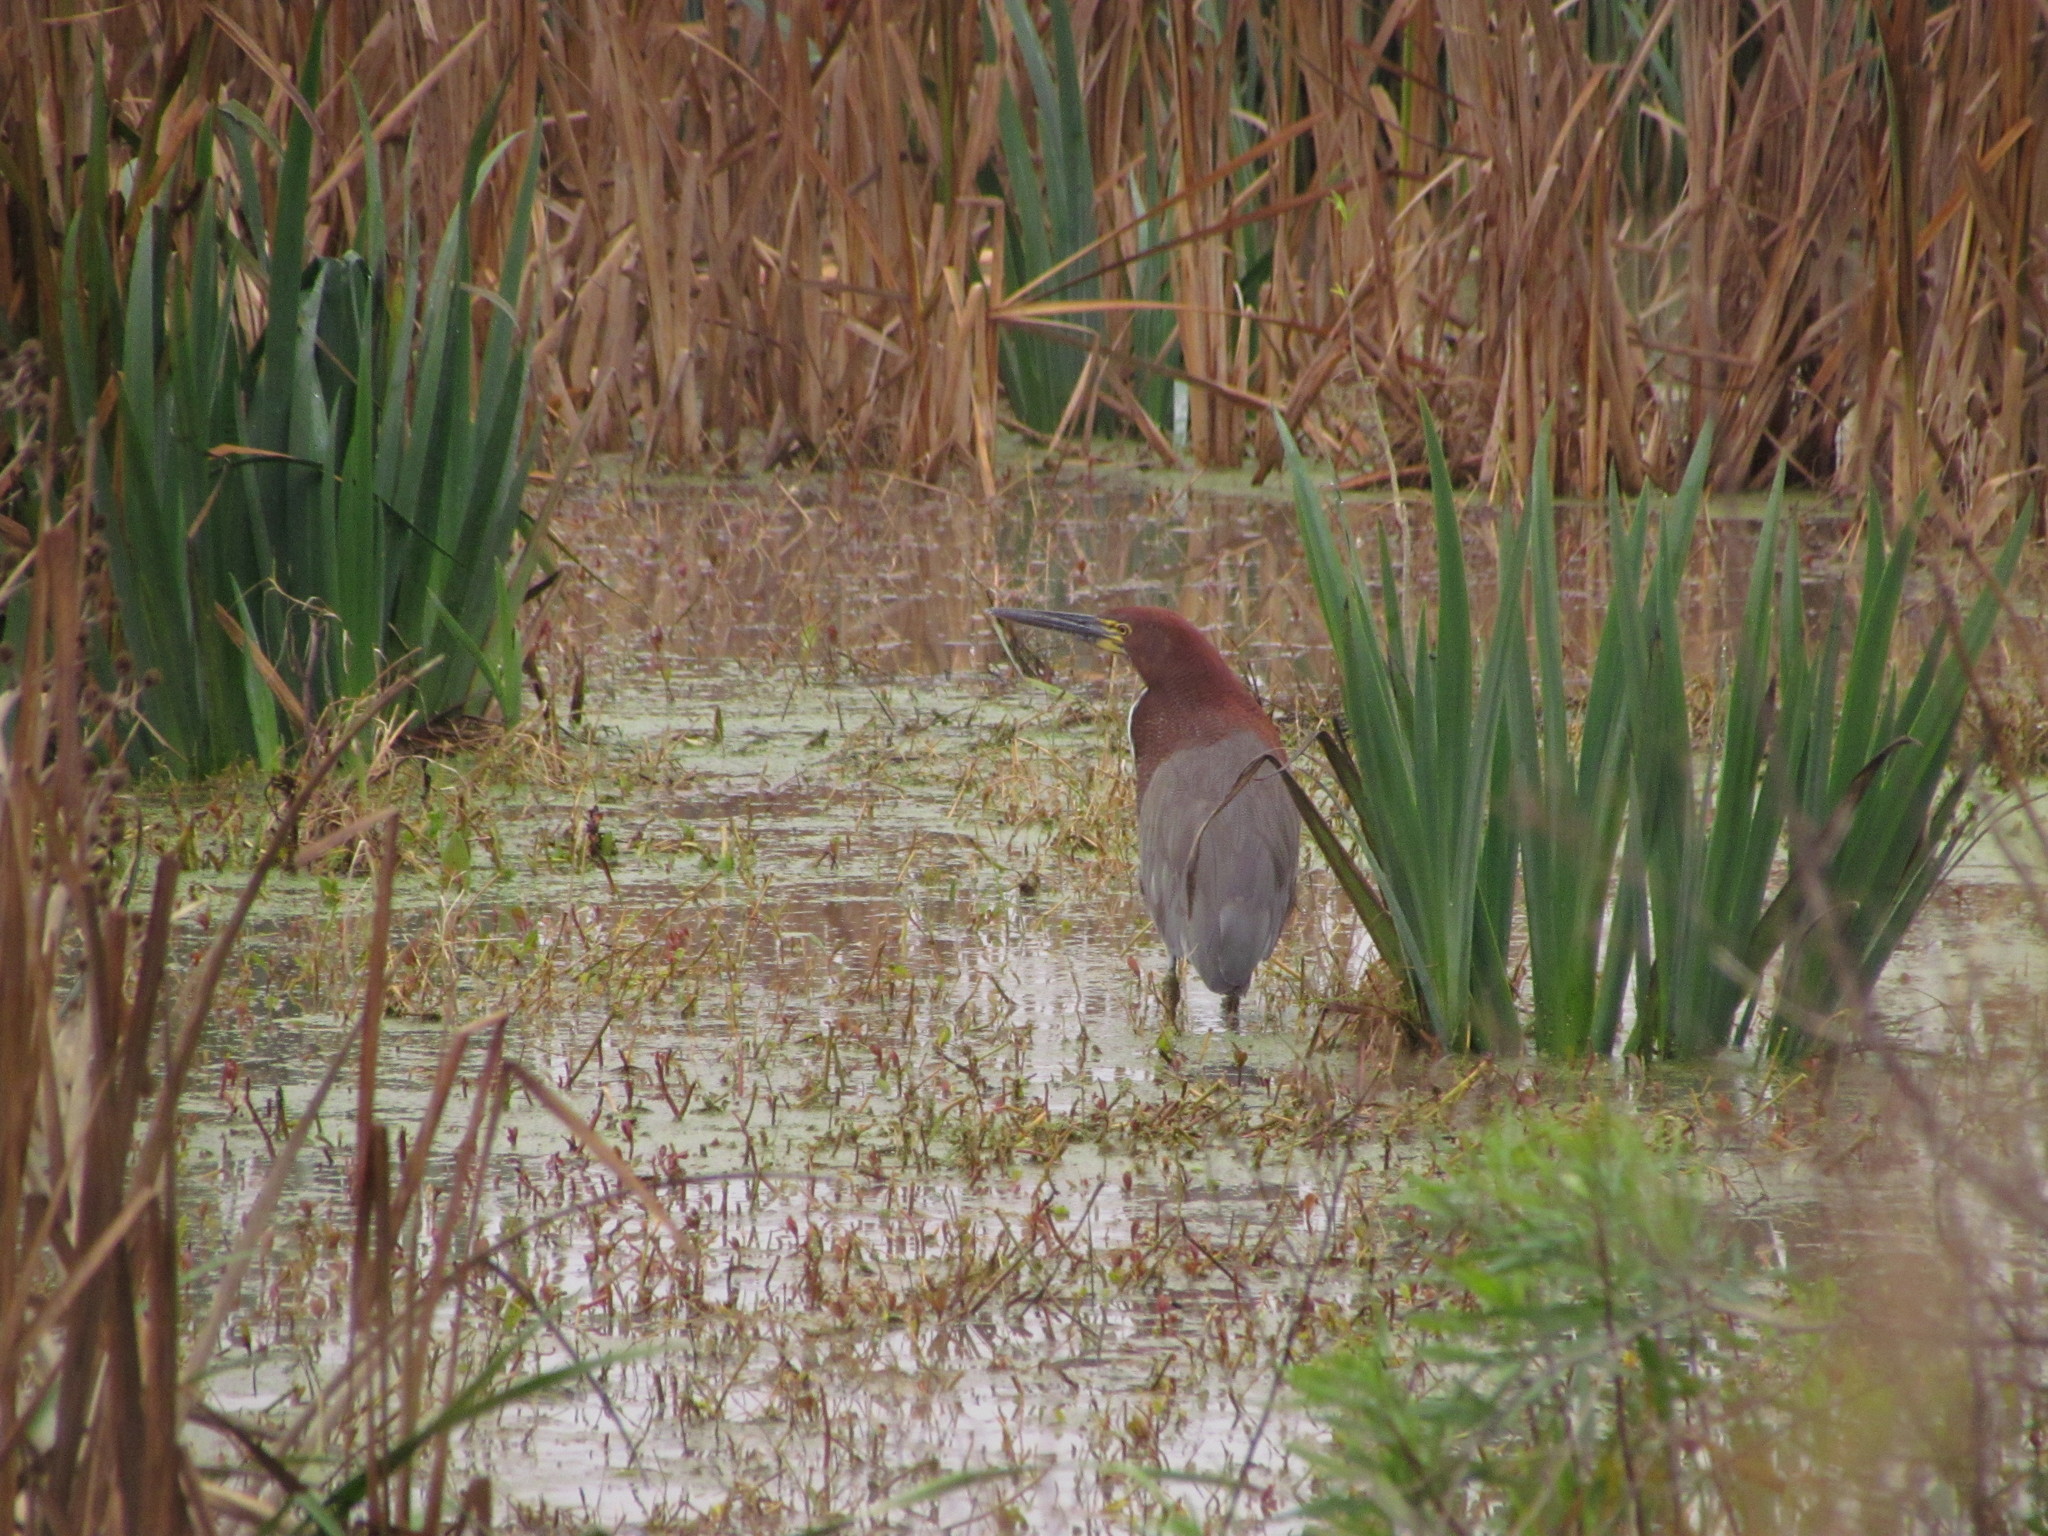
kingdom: Animalia
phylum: Chordata
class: Aves
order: Pelecaniformes
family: Ardeidae
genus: Tigrisoma
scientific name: Tigrisoma lineatum
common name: Rufescent tiger-heron
